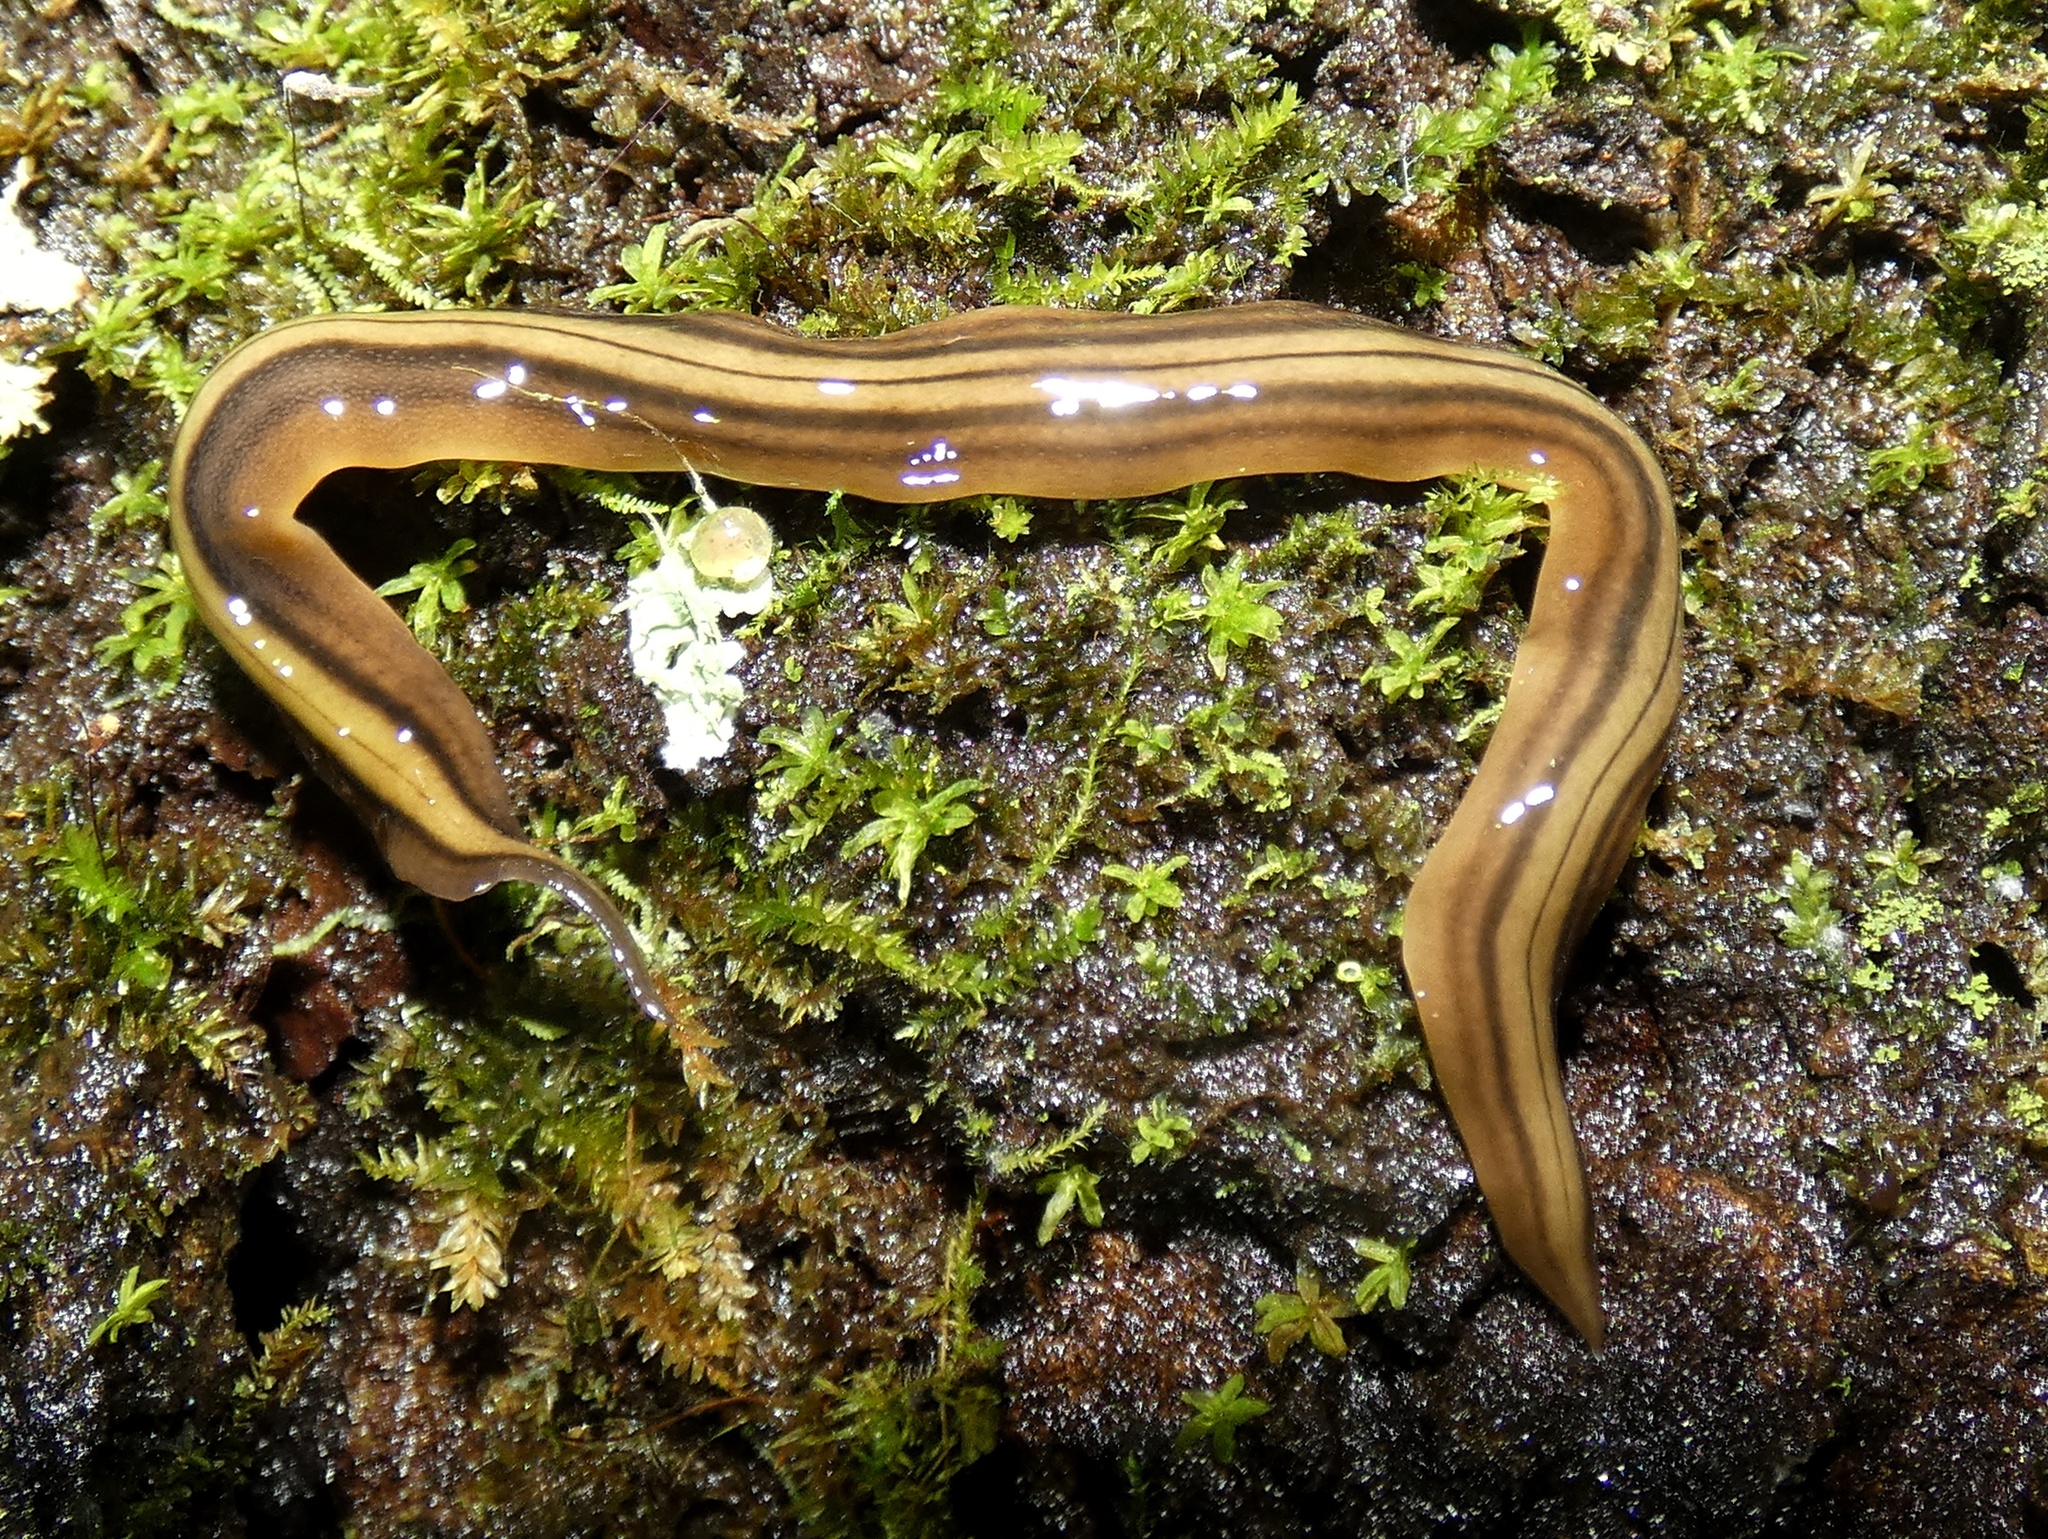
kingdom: Animalia
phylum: Platyhelminthes
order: Tricladida
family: Geoplanidae
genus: Notogynaphallia
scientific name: Notogynaphallia quinquestriata
